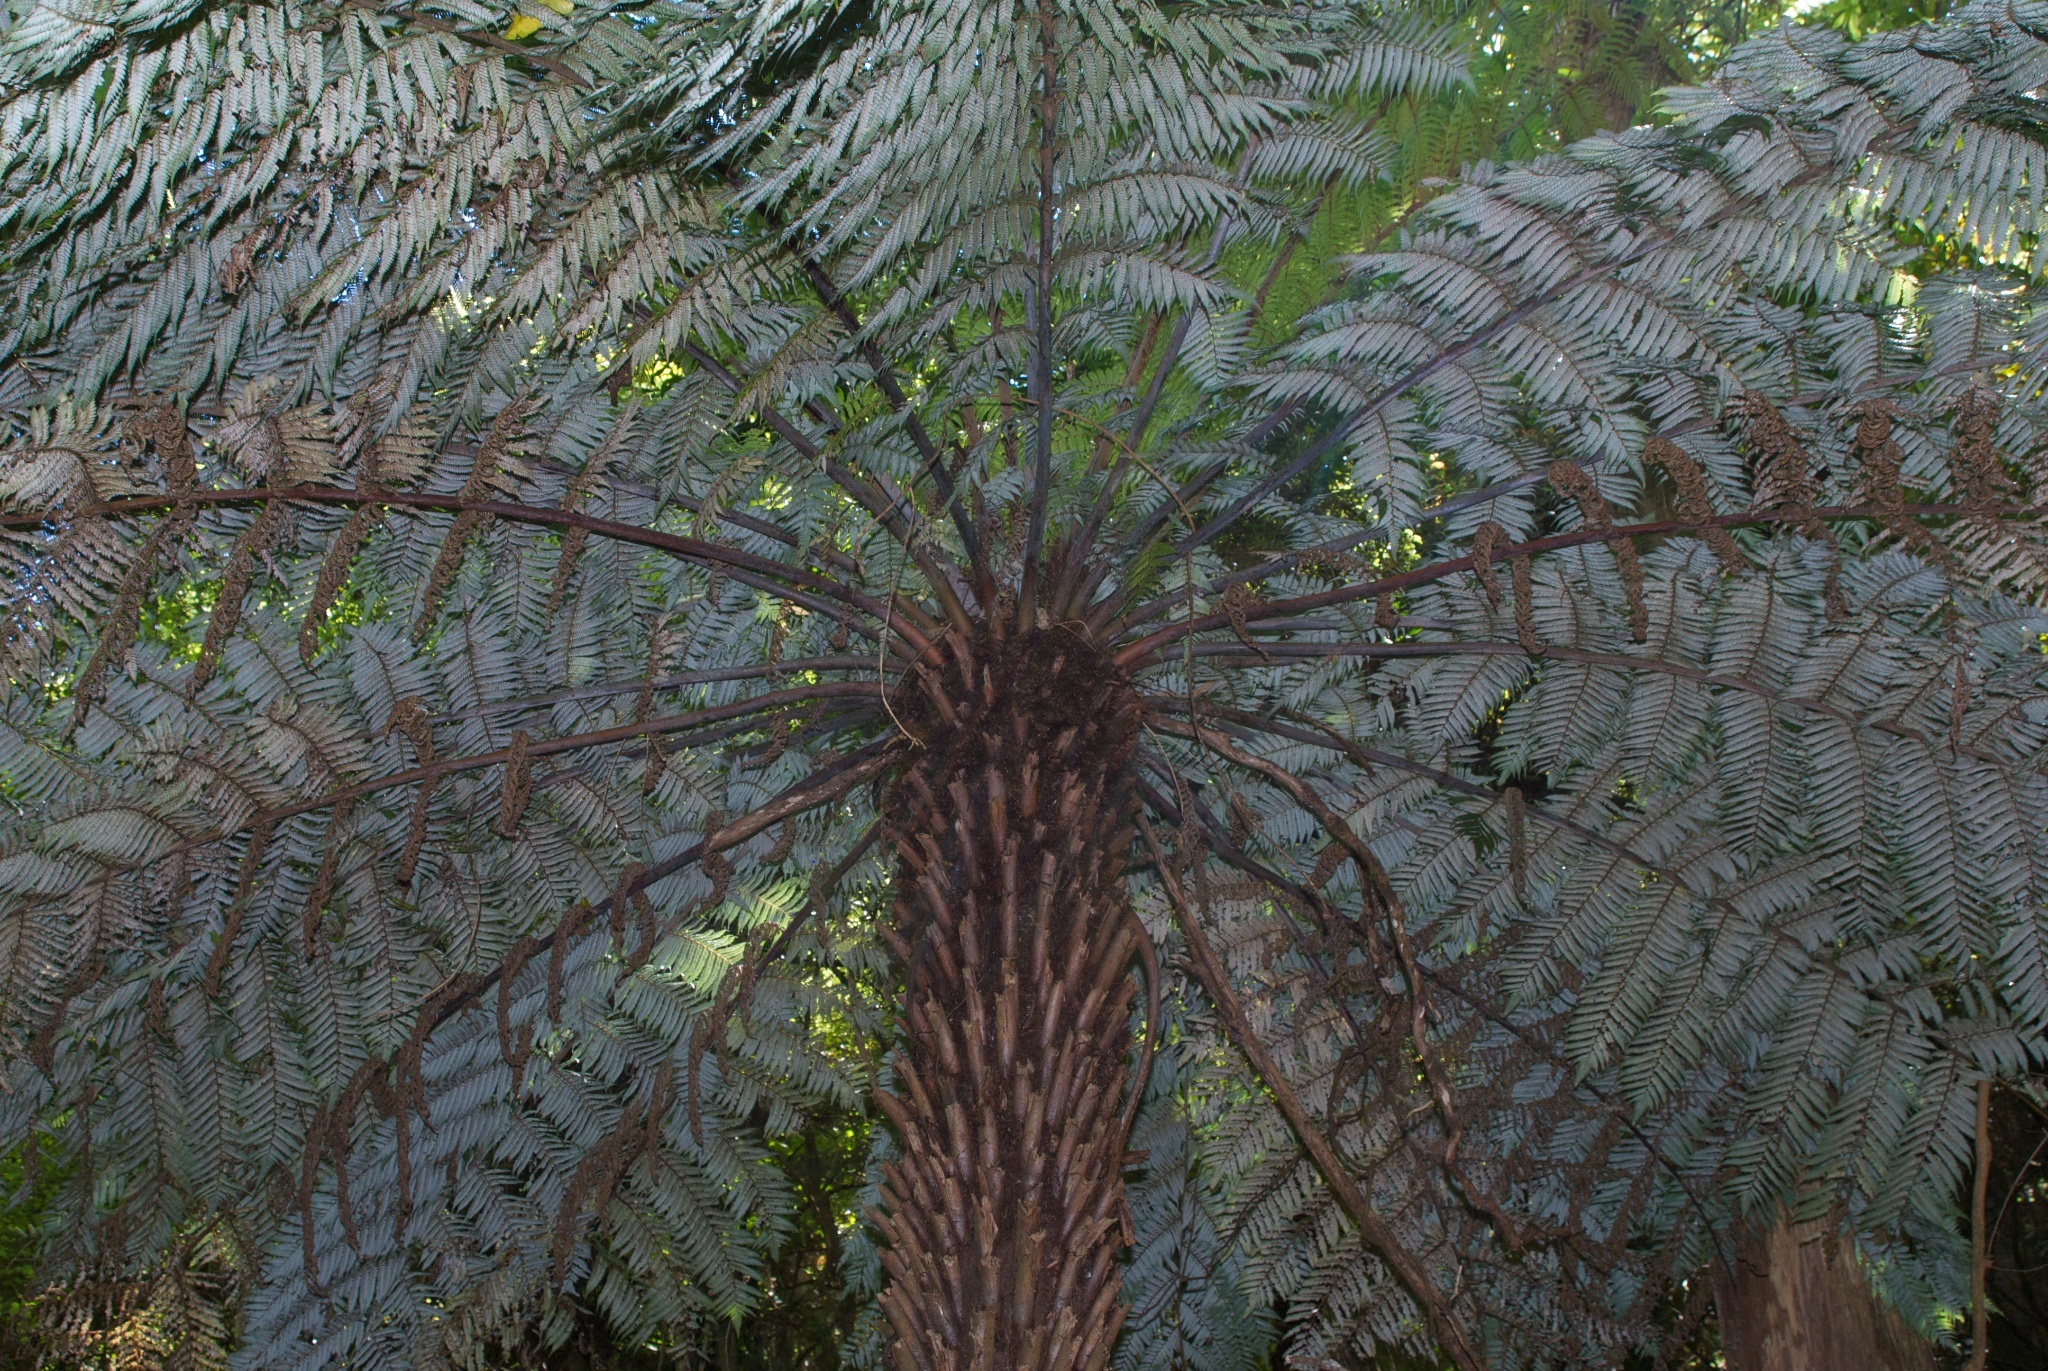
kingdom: Plantae
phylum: Tracheophyta
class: Polypodiopsida
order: Cyatheales
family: Cyatheaceae
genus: Alsophila
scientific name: Alsophila dealbata
